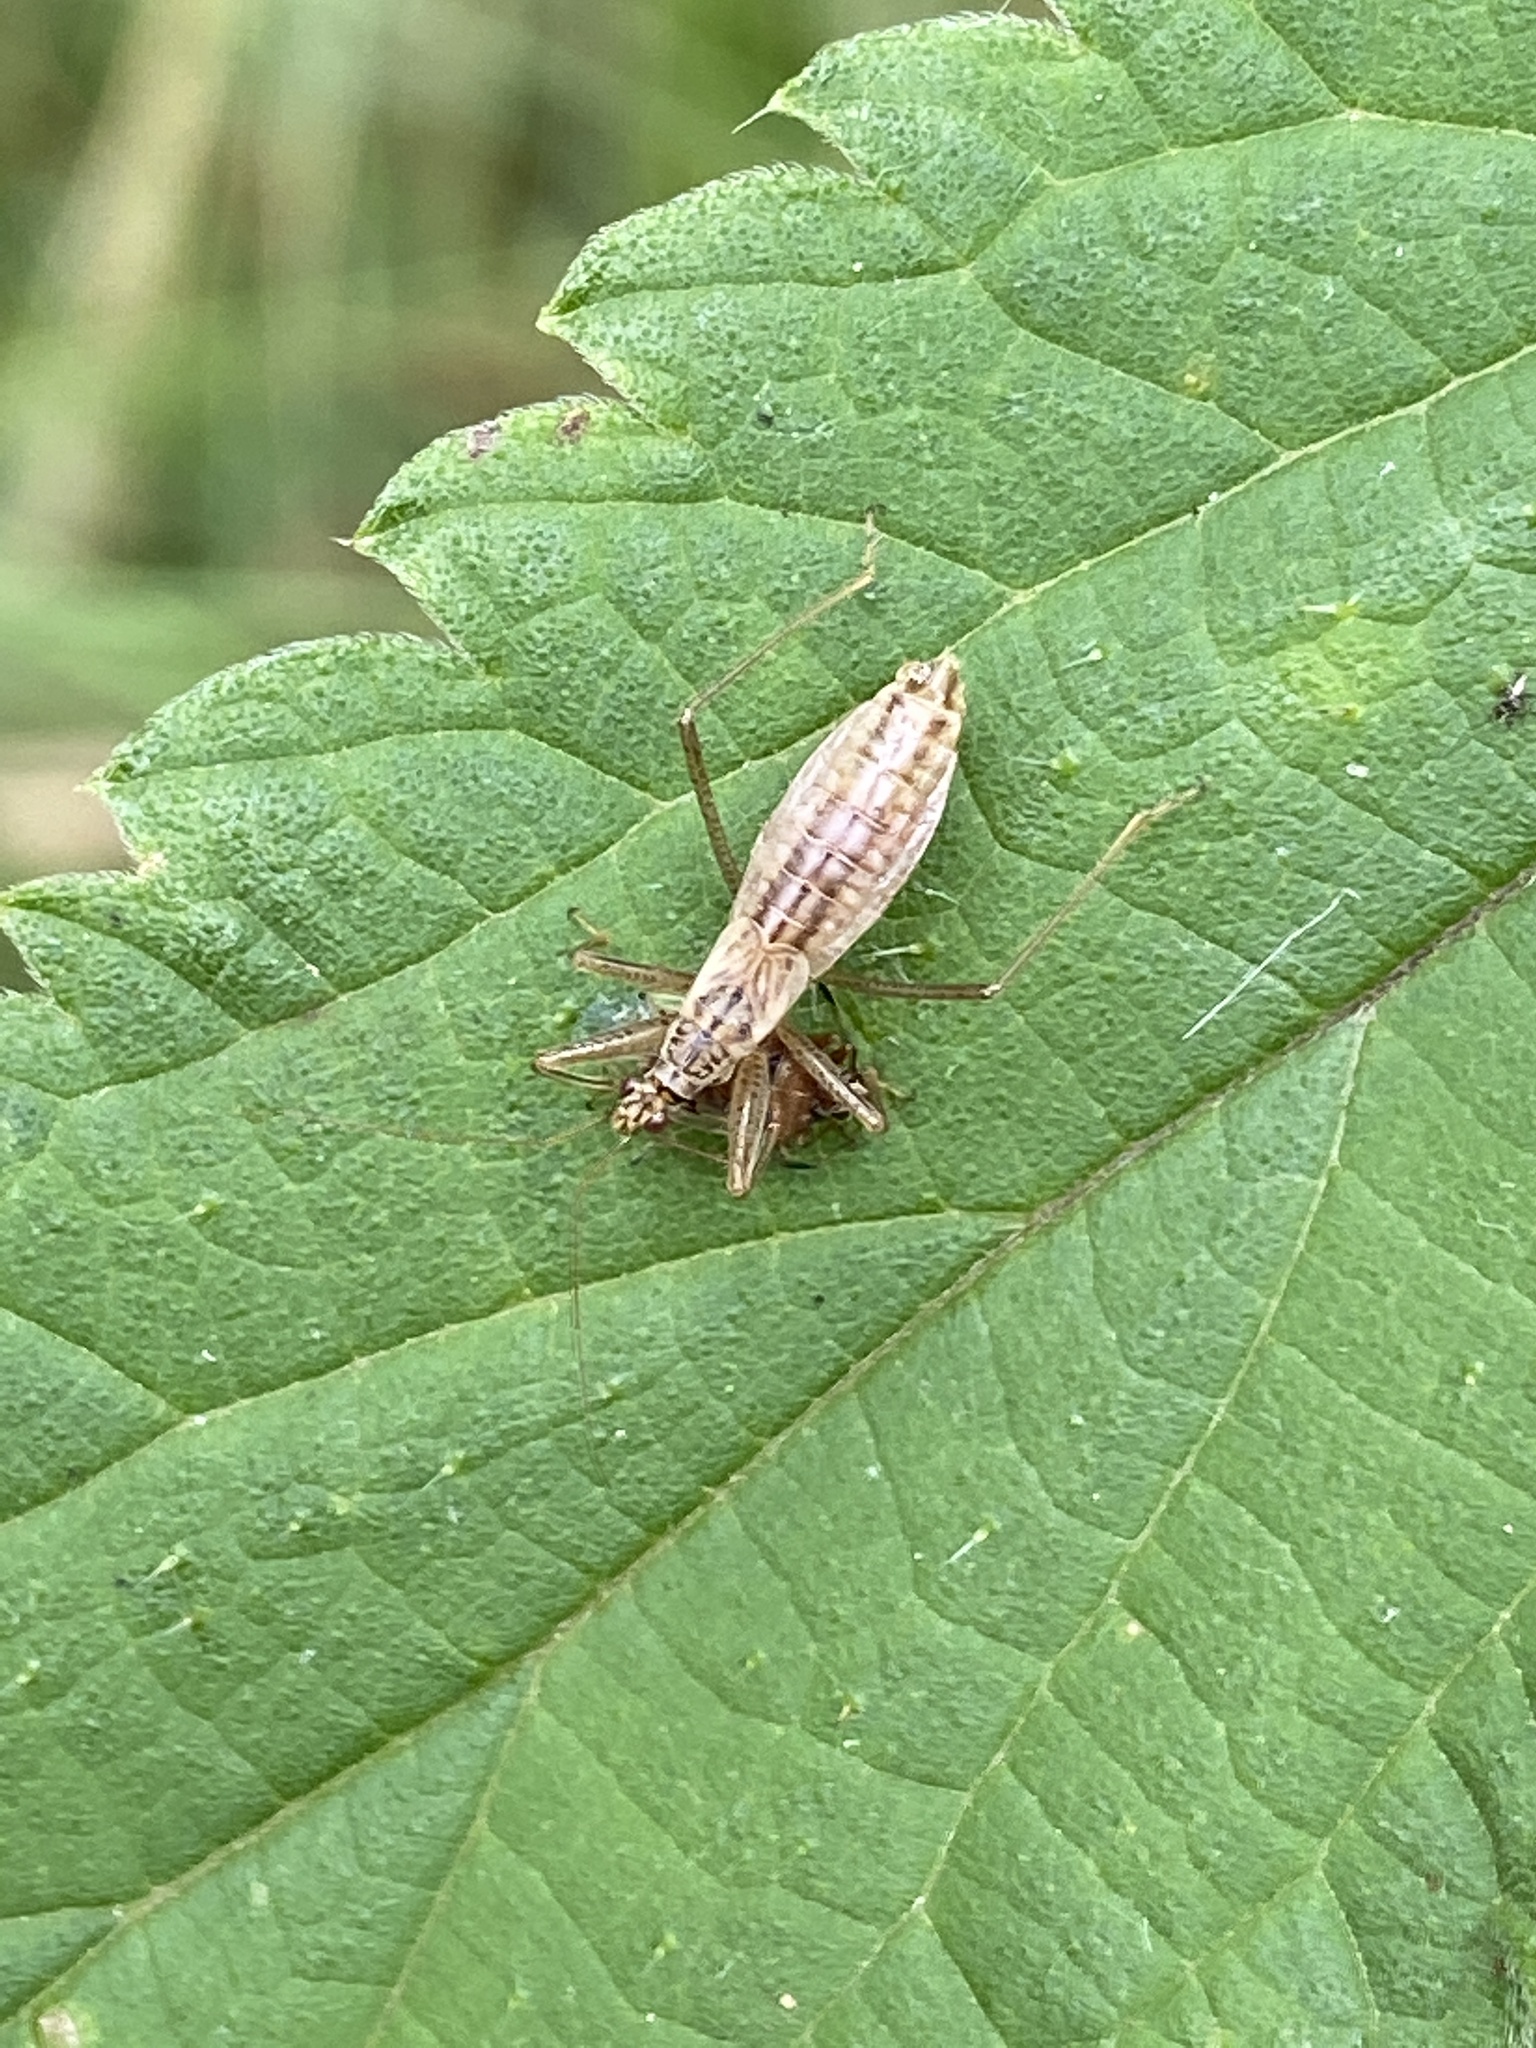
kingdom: Animalia
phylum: Arthropoda
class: Insecta
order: Hemiptera
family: Nabidae
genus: Nabis
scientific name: Nabis limbatus
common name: Marsh damselbug
